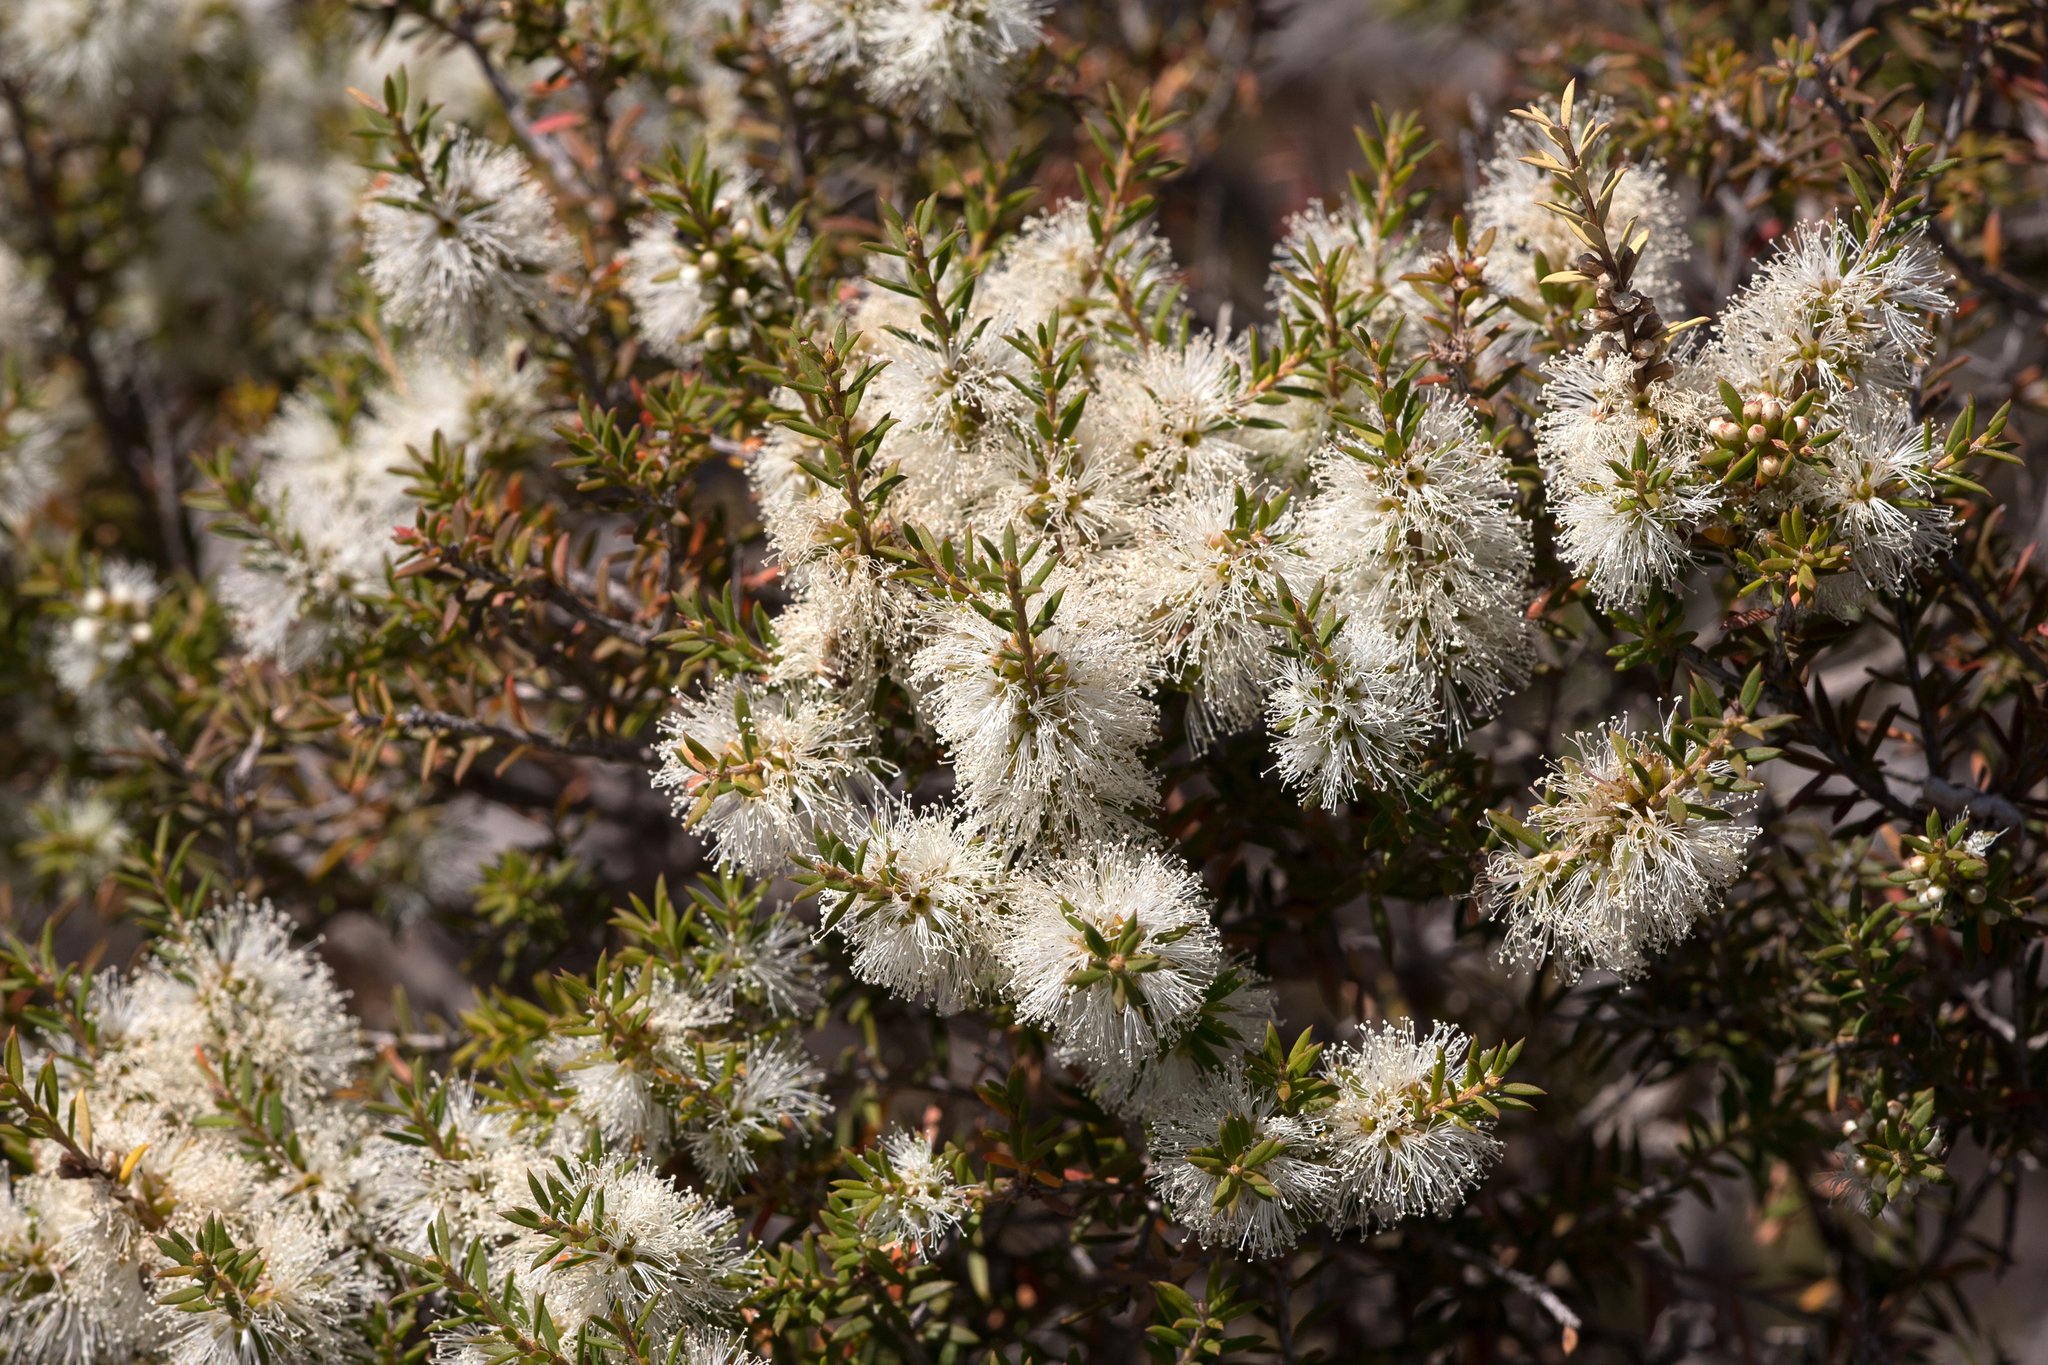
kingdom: Plantae
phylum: Tracheophyta
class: Magnoliopsida
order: Myrtales
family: Myrtaceae
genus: Melaleuca
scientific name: Melaleuca lanceolata
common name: Rottnest island teatree
